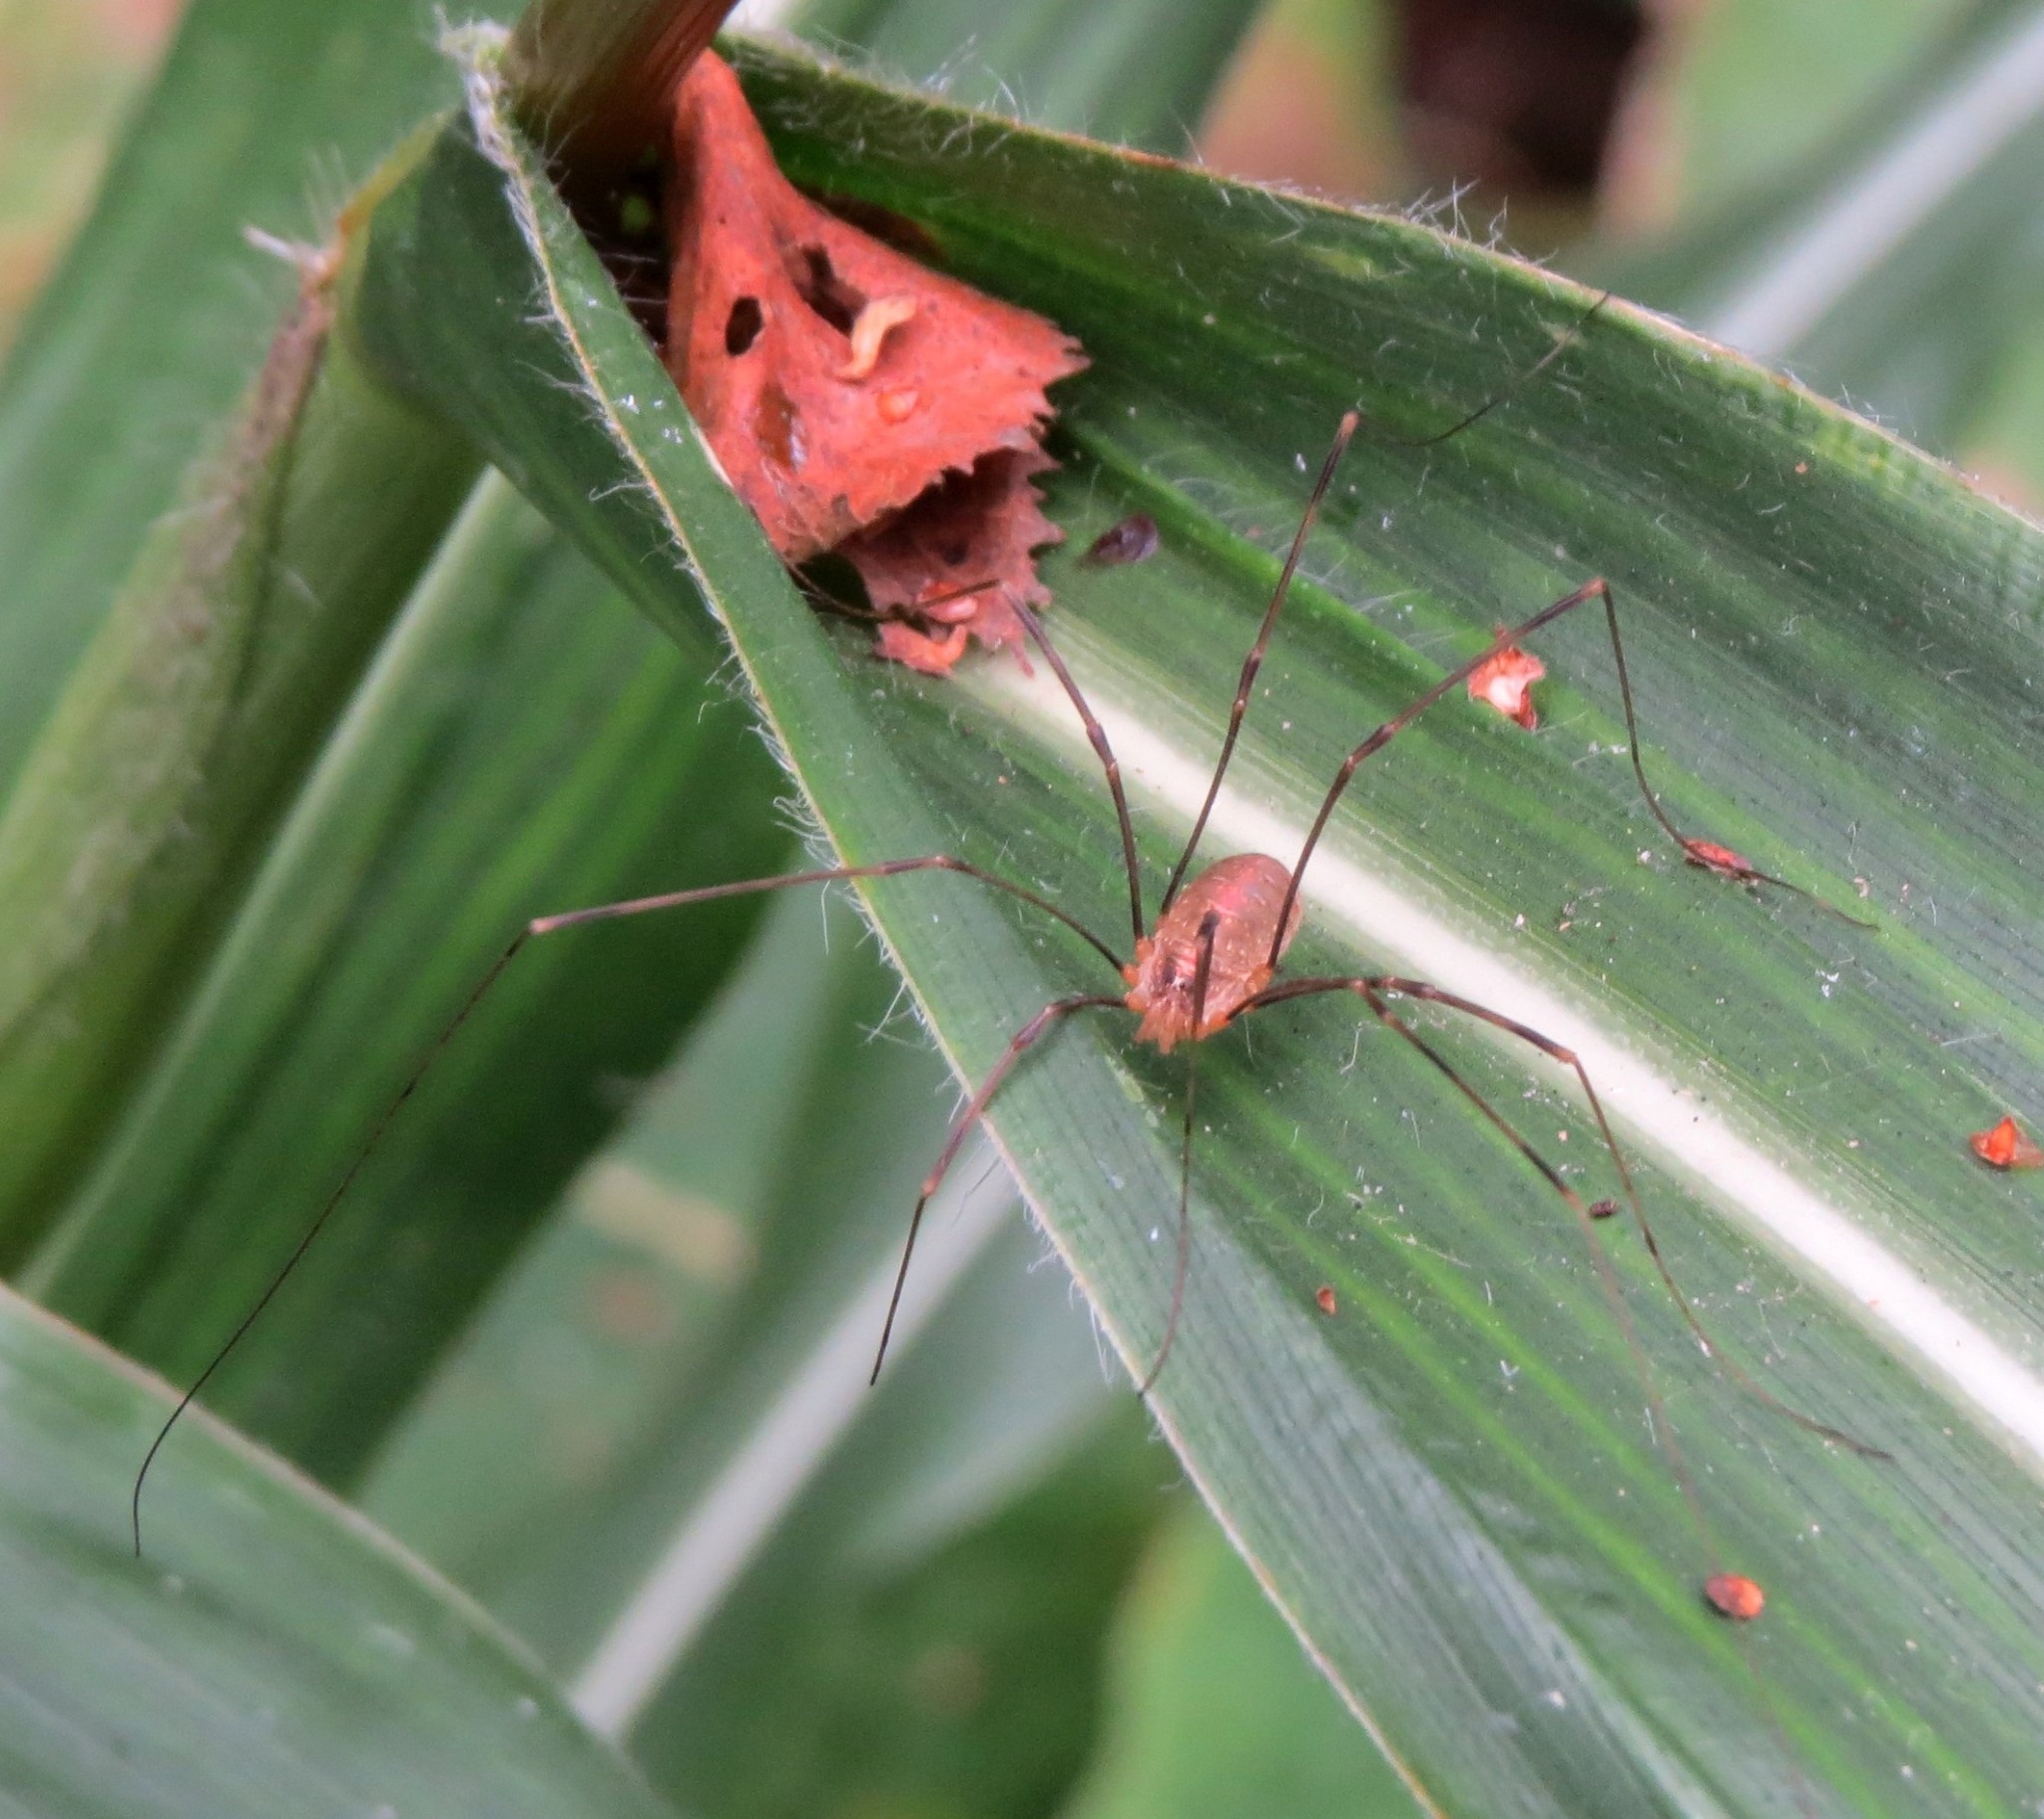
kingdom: Animalia
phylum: Arthropoda
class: Arachnida
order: Opiliones
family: Phalangiidae
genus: Opilio
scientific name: Opilio canestrinii
